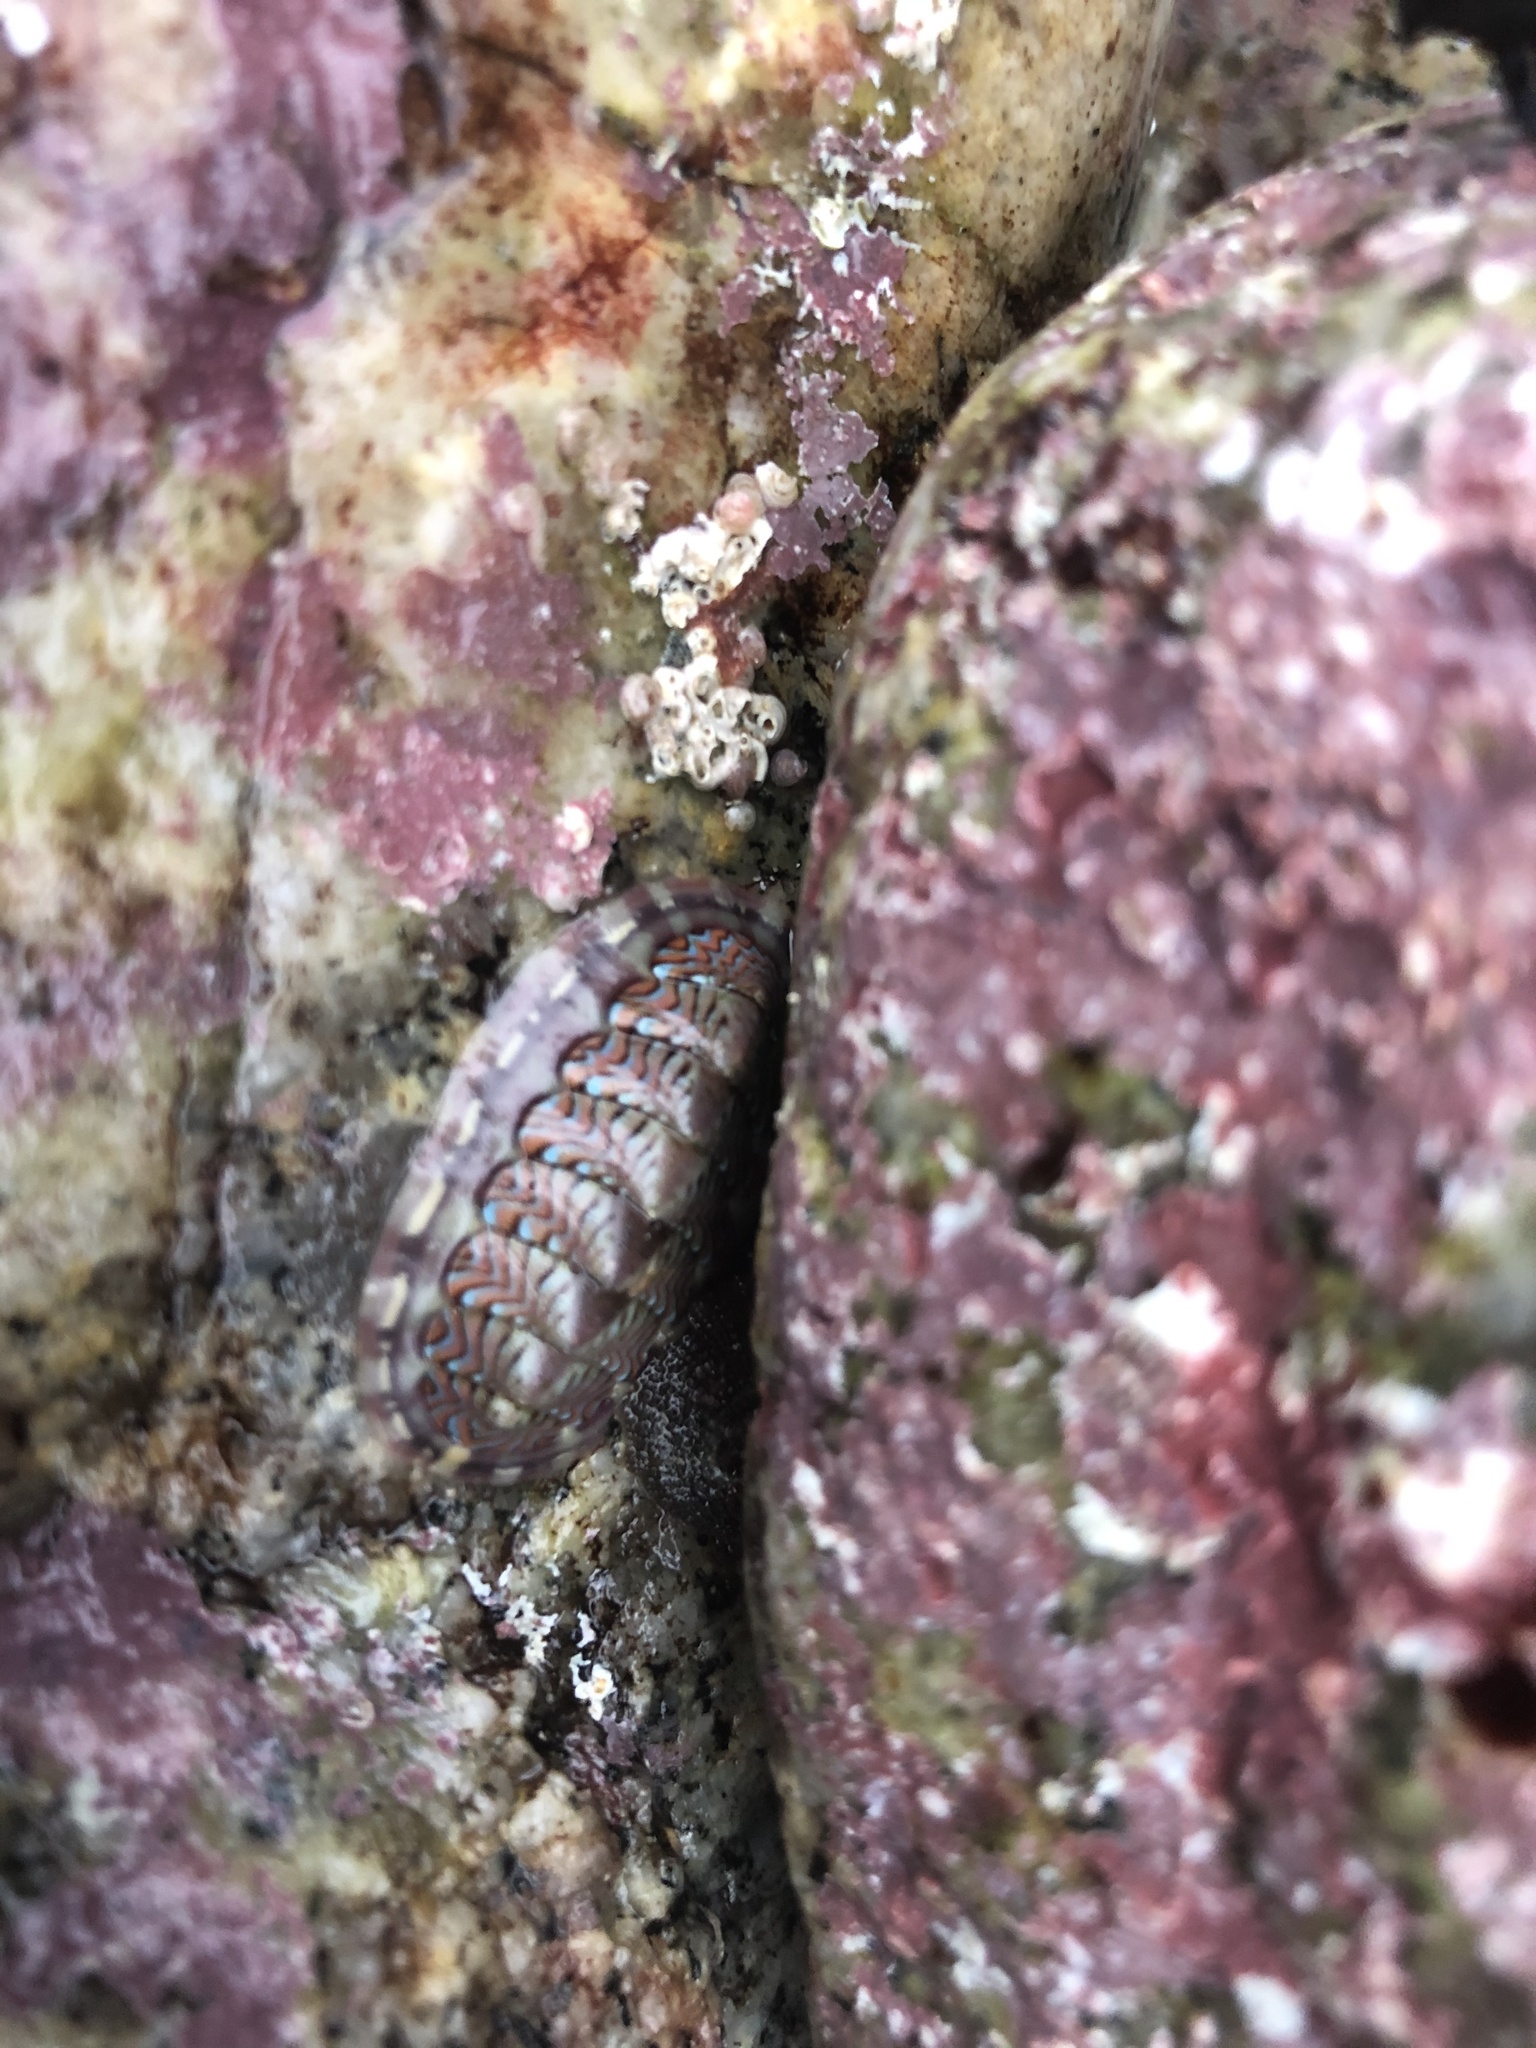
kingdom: Animalia
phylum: Mollusca
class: Polyplacophora
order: Chitonida
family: Tonicellidae
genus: Tonicella
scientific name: Tonicella lokii
